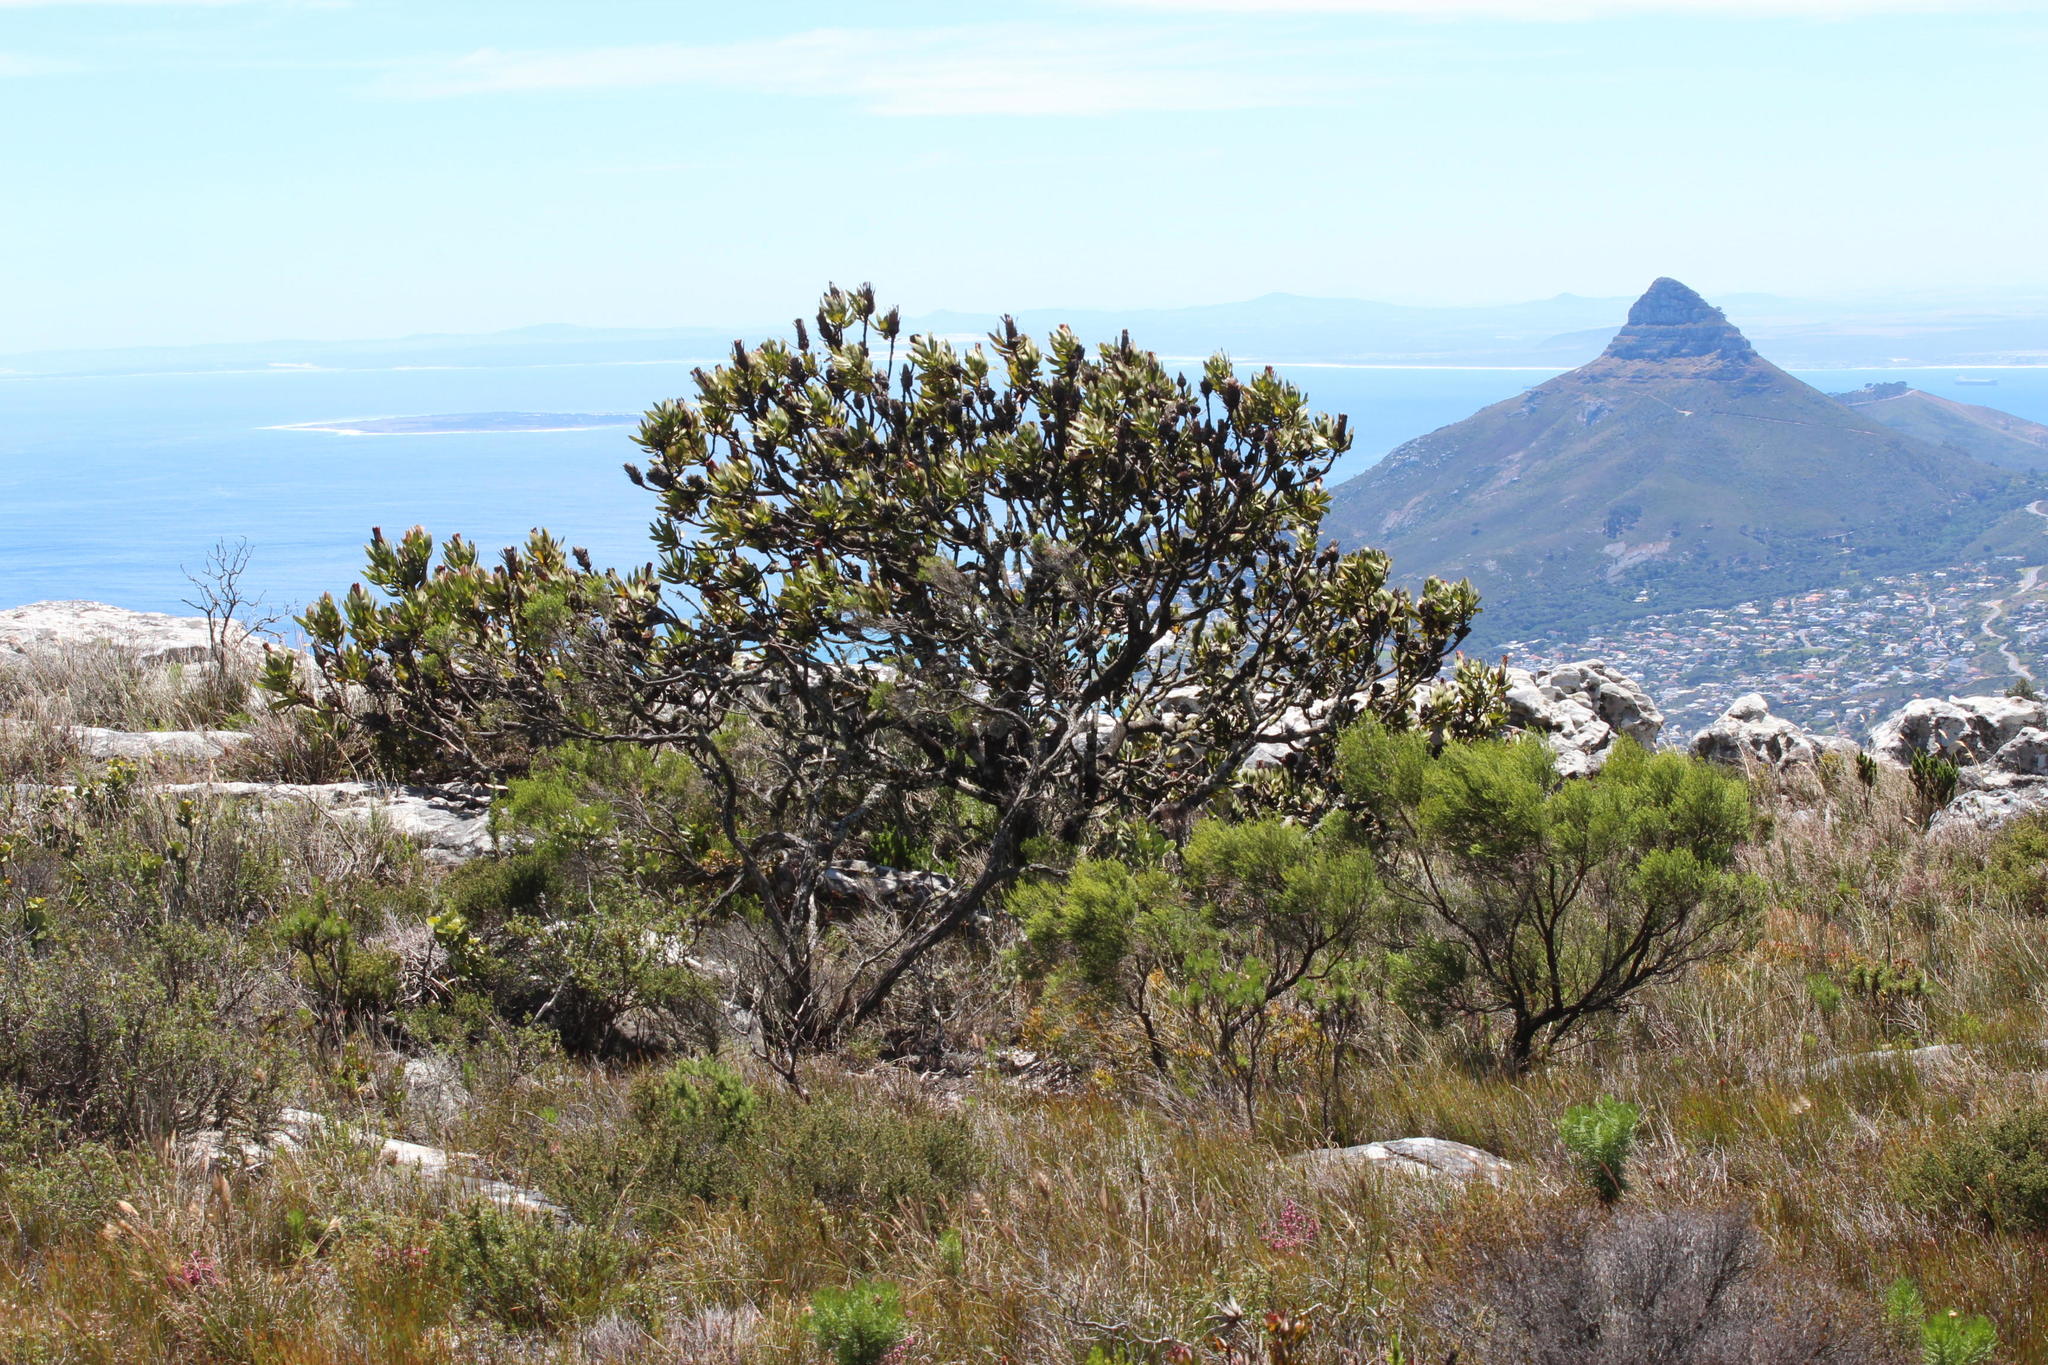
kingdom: Plantae
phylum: Tracheophyta
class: Magnoliopsida
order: Proteales
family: Proteaceae
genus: Protea
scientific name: Protea lepidocarpodendron
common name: Black-bearded protea
